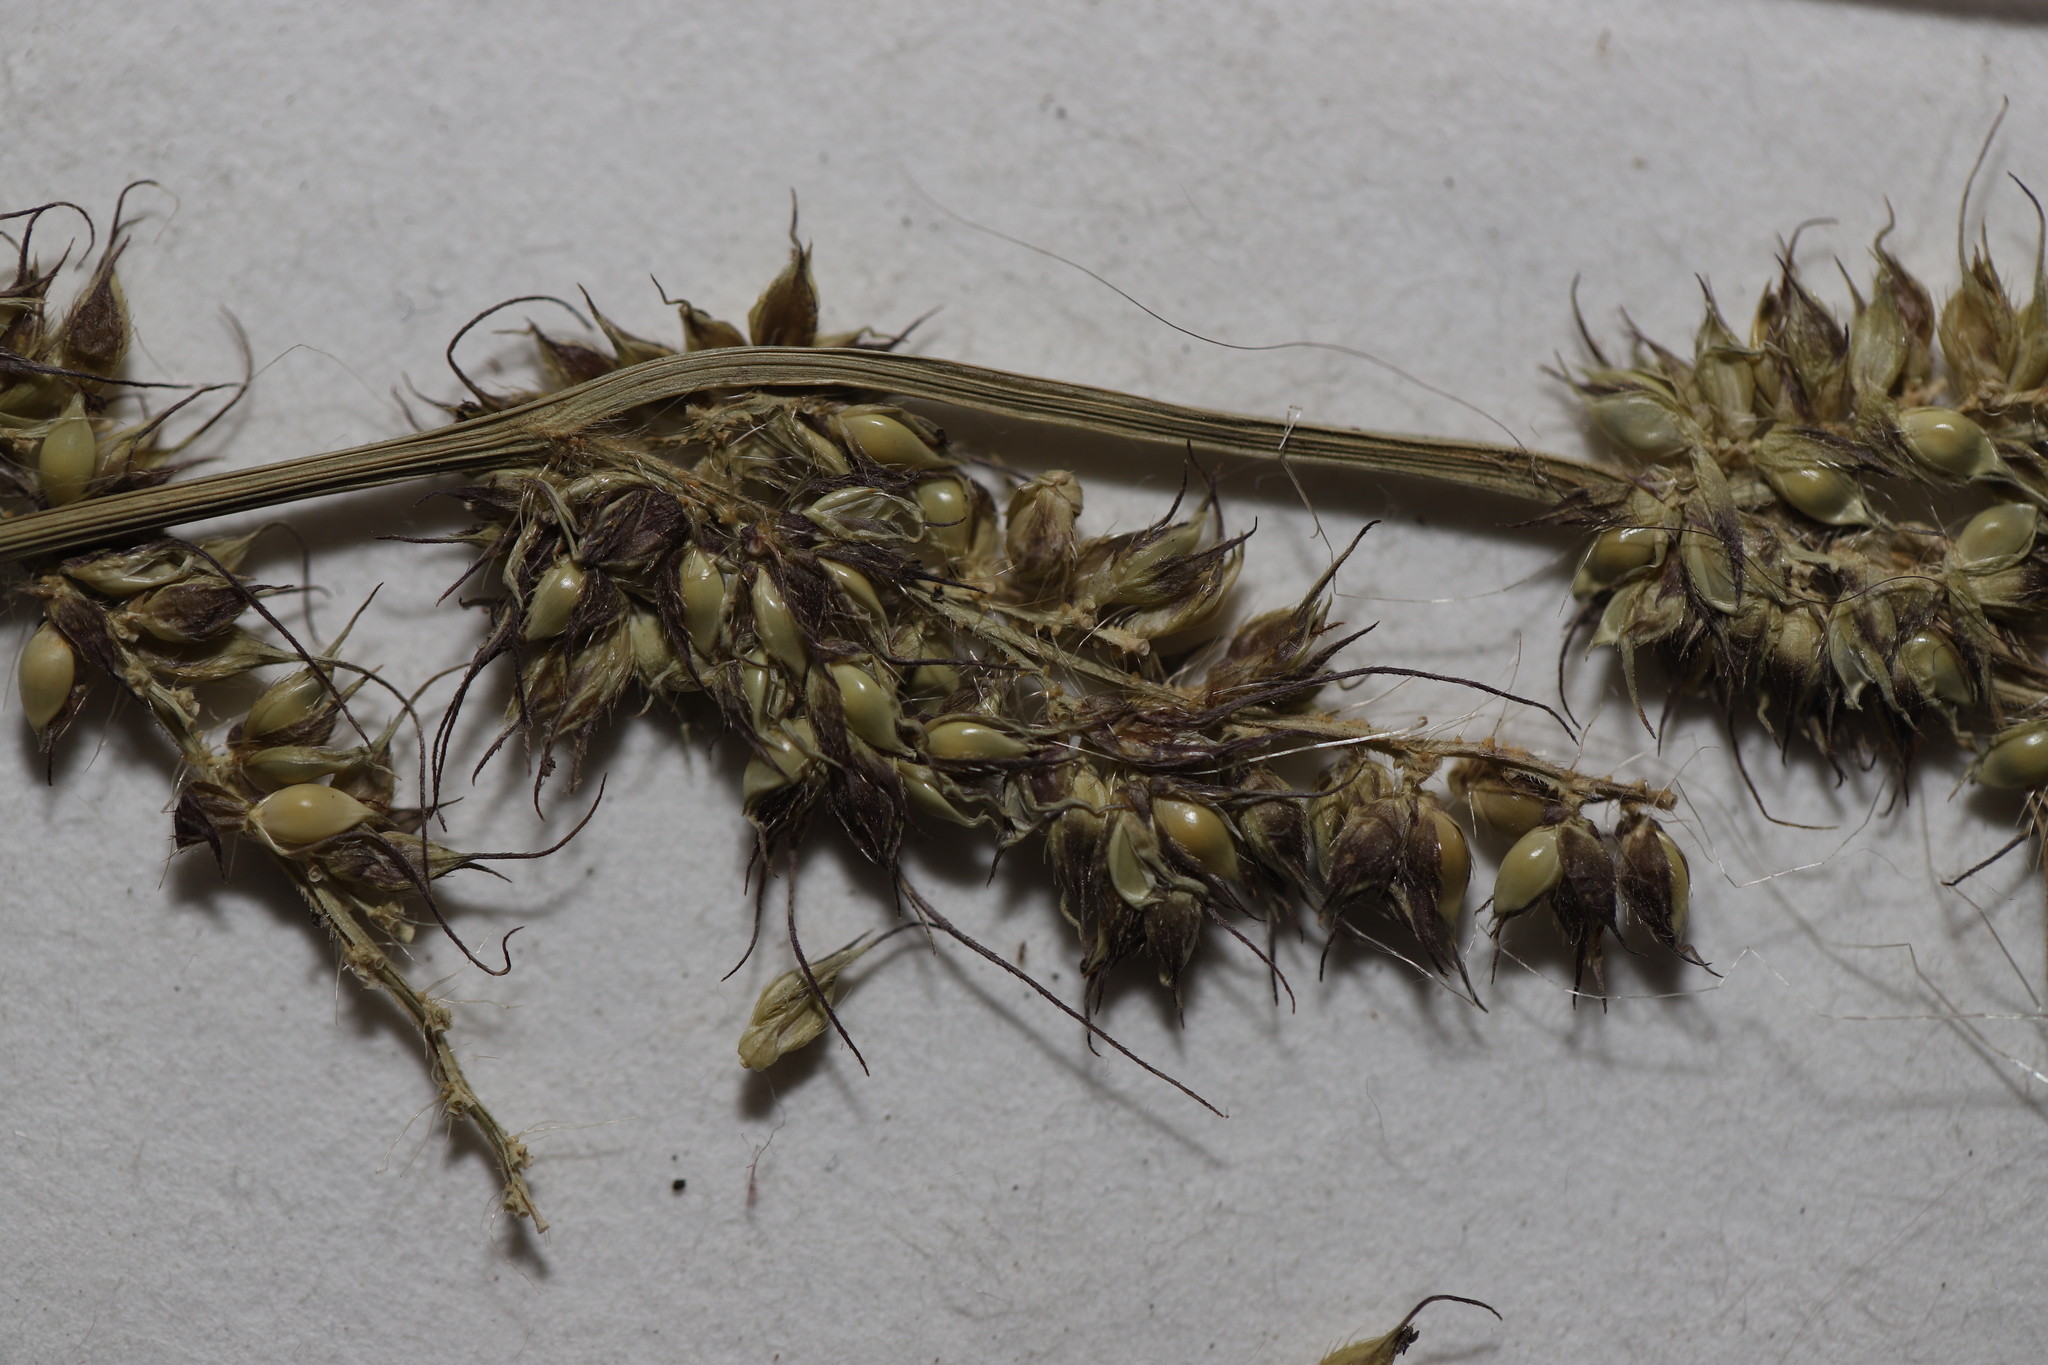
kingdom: Plantae
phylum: Tracheophyta
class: Liliopsida
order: Poales
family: Poaceae
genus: Echinochloa
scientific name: Echinochloa muricata
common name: American barnyard grass
